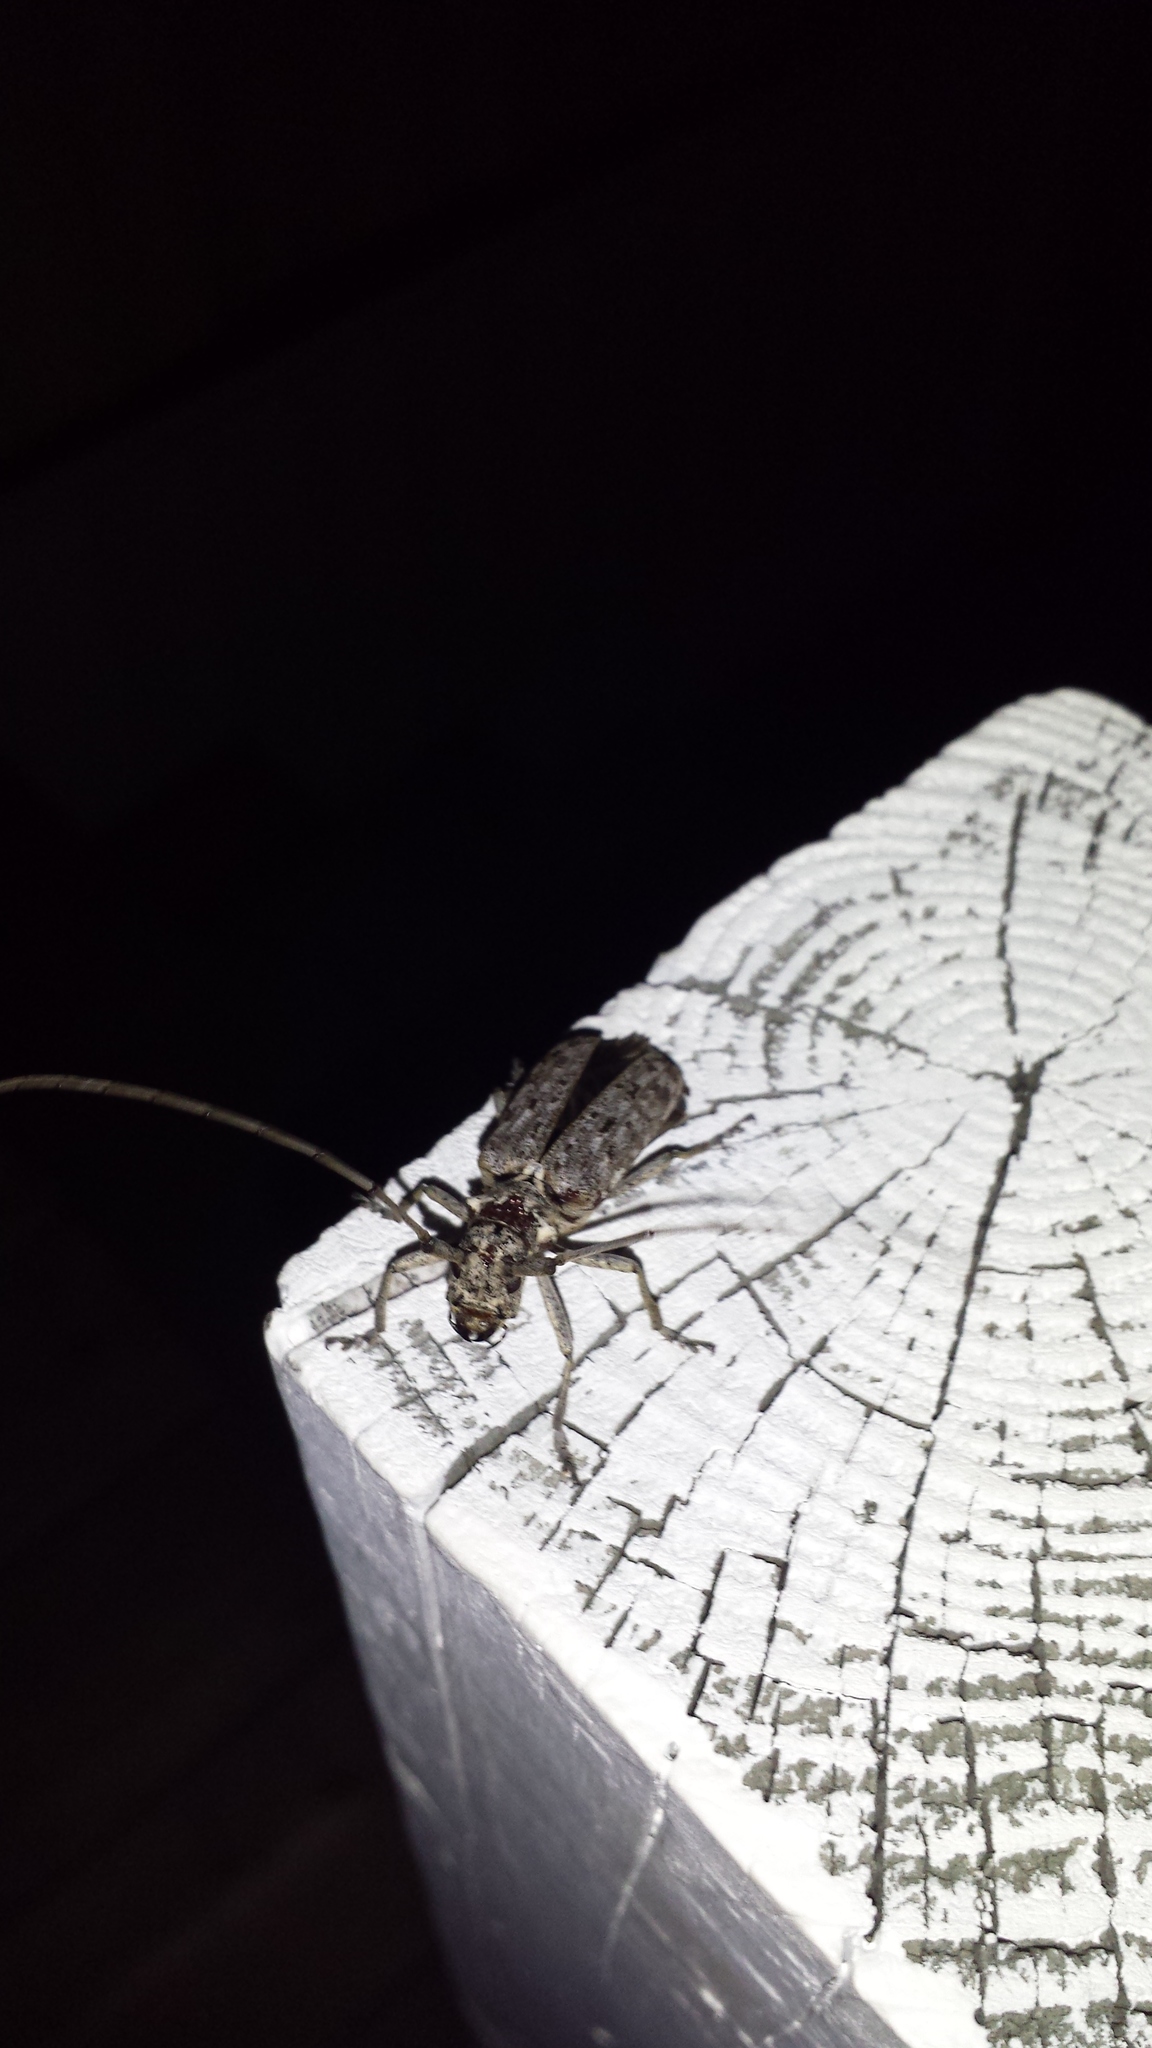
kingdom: Animalia
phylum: Arthropoda
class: Insecta
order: Coleoptera
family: Cerambycidae
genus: Monochamus
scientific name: Monochamus notatus
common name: Northeastern pine sawyer beetle
